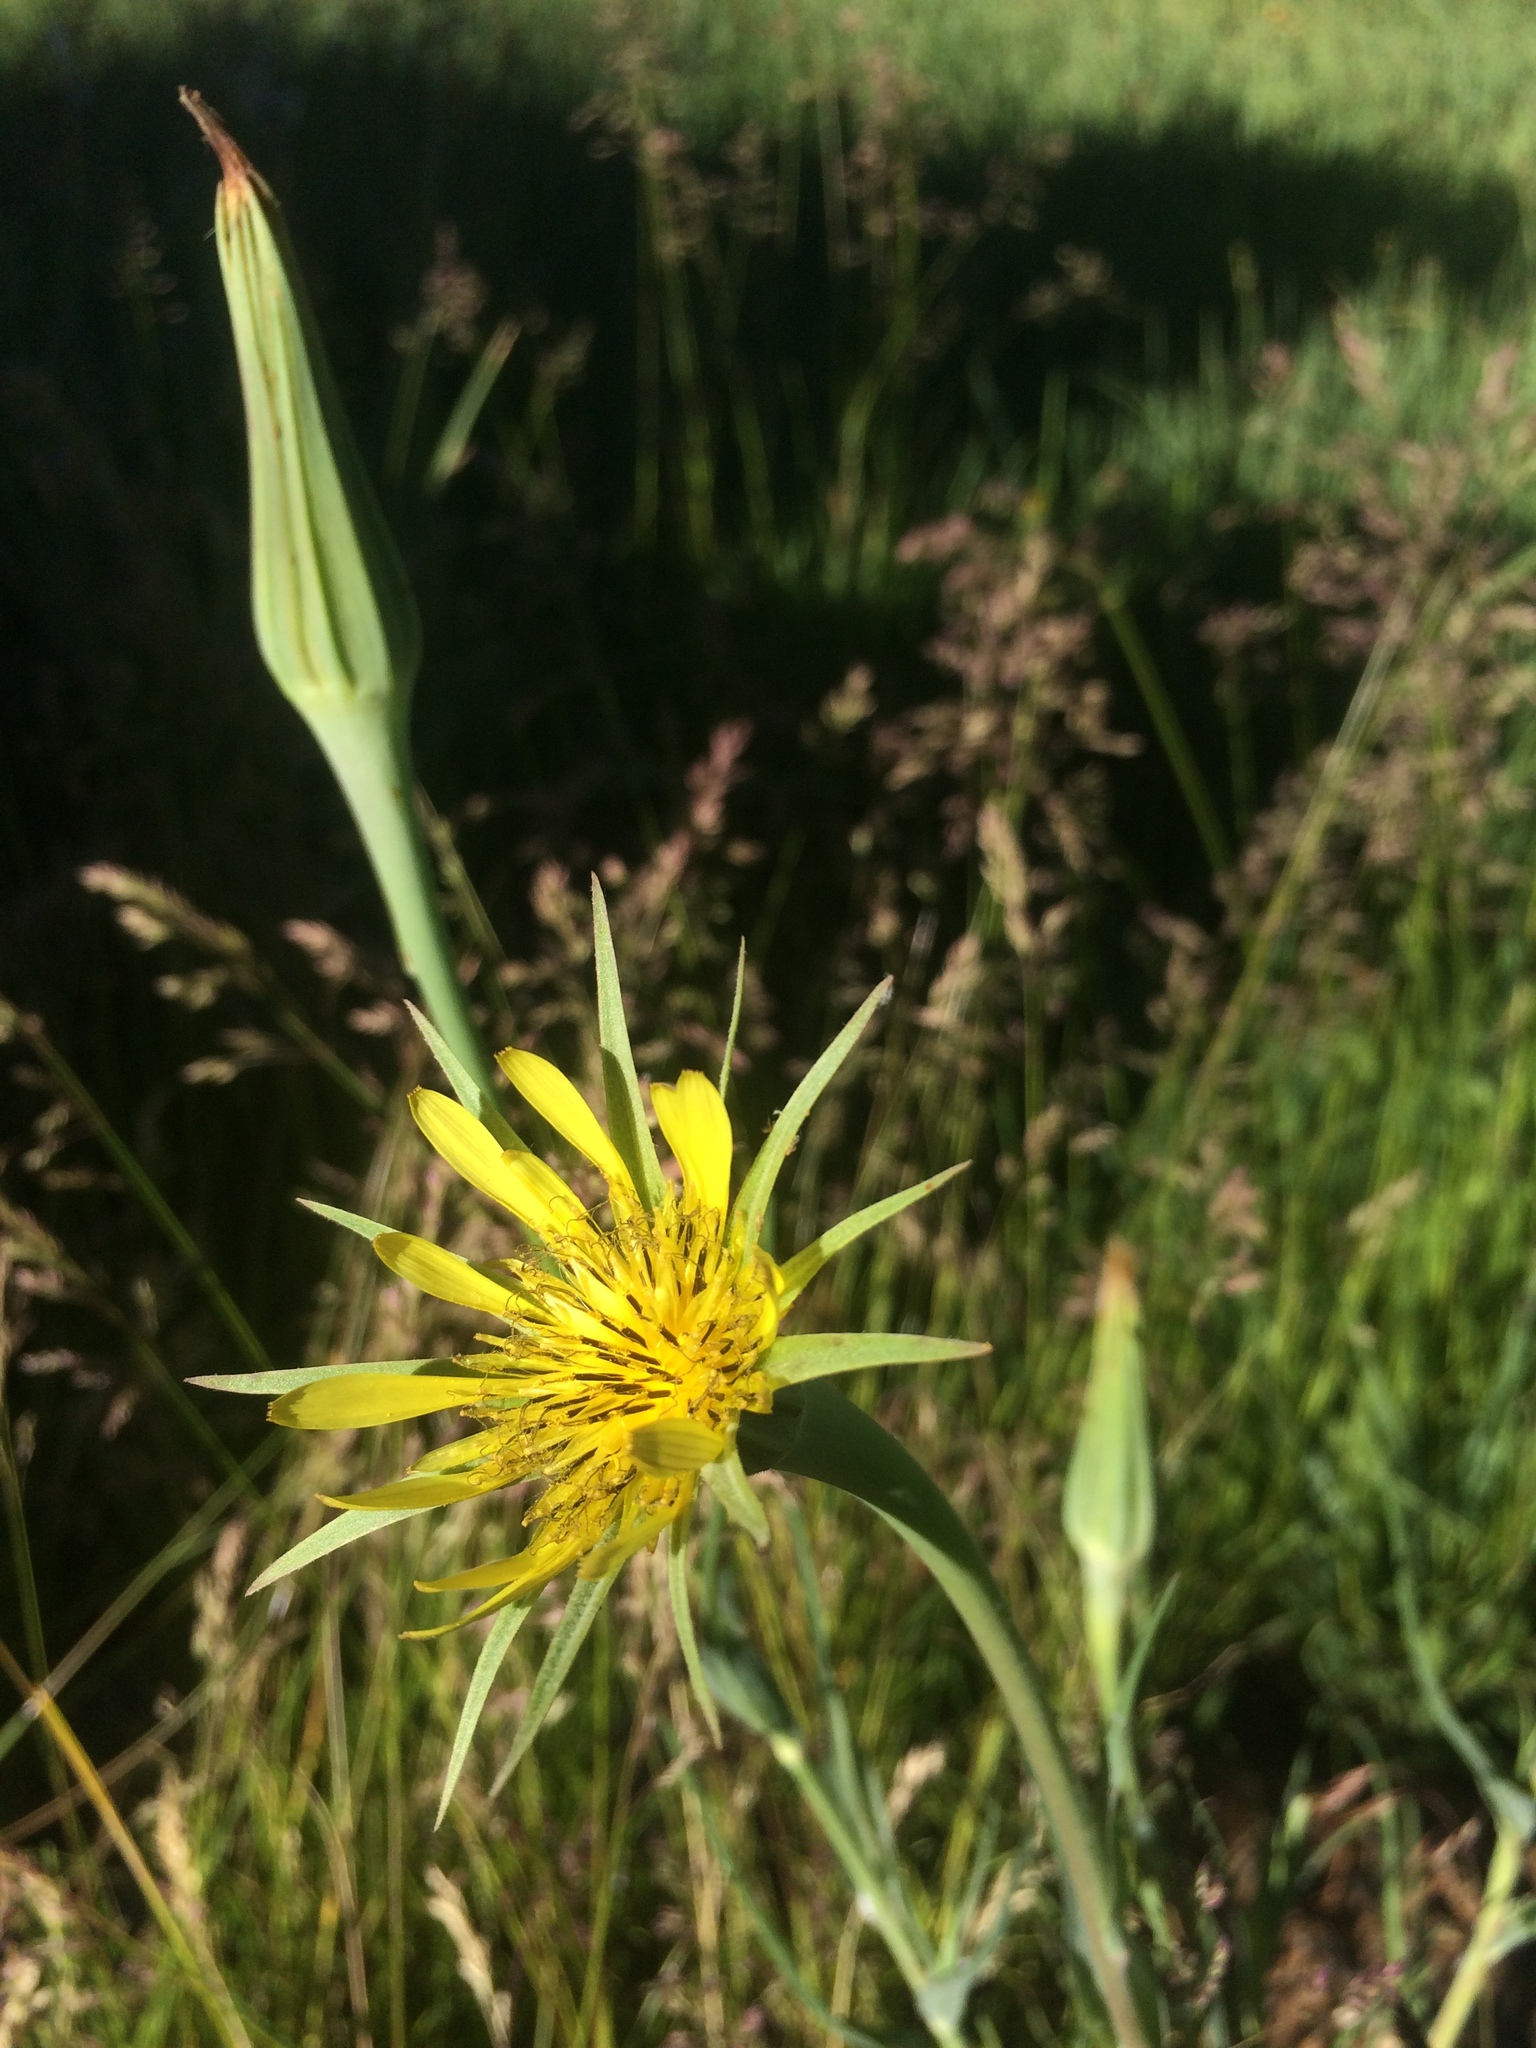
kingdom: Plantae
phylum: Tracheophyta
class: Magnoliopsida
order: Asterales
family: Asteraceae
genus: Tragopogon
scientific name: Tragopogon dubius
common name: Yellow salsify
